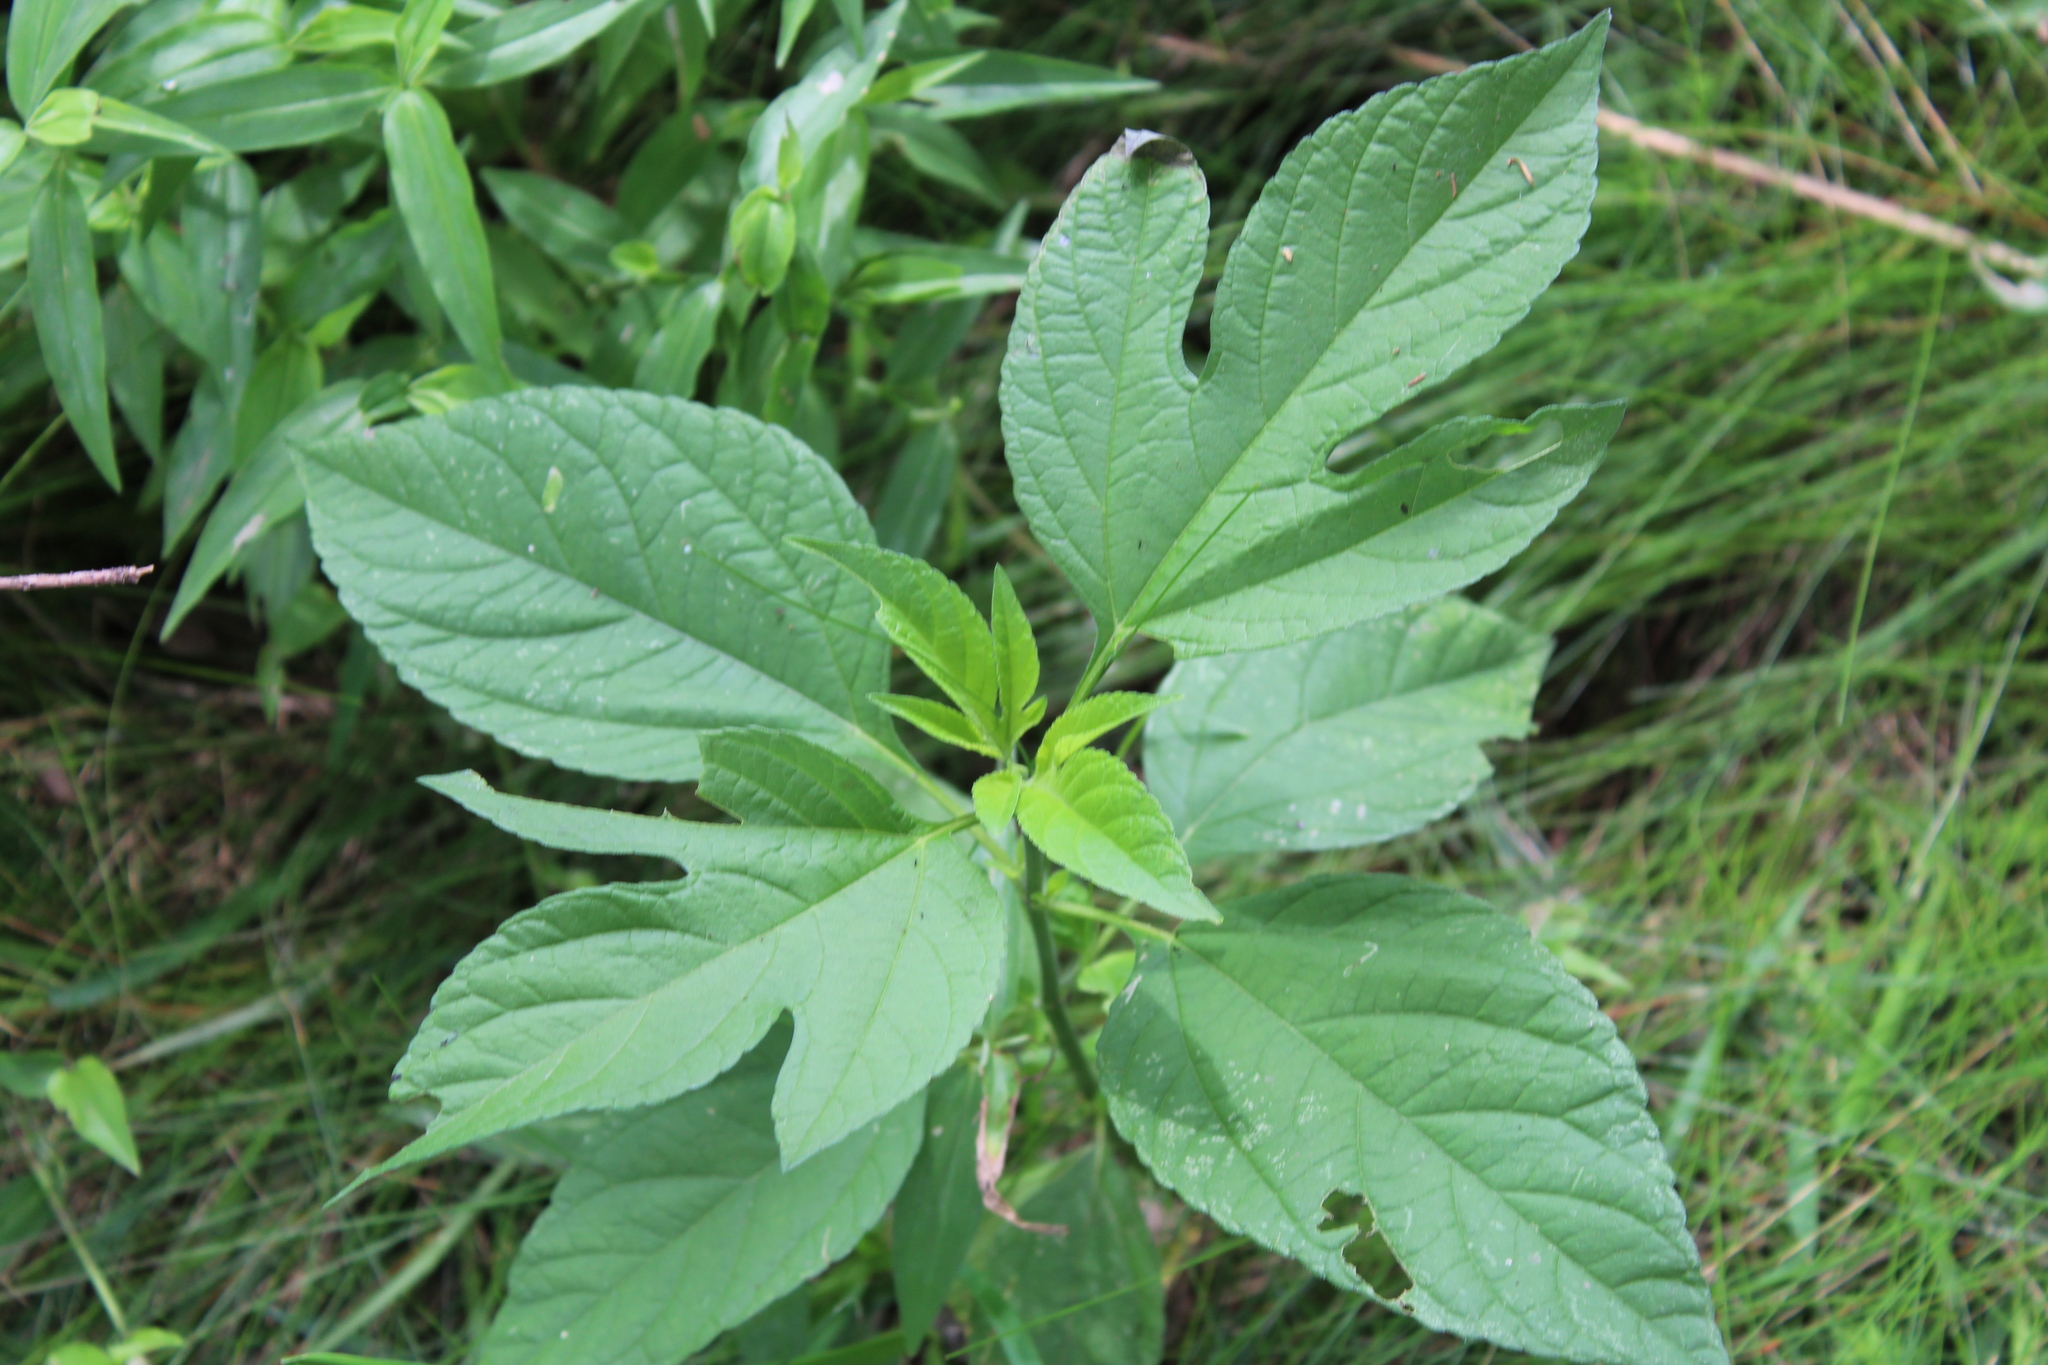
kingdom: Plantae
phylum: Tracheophyta
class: Magnoliopsida
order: Asterales
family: Asteraceae
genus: Ambrosia
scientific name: Ambrosia trifida
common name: Giant ragweed
